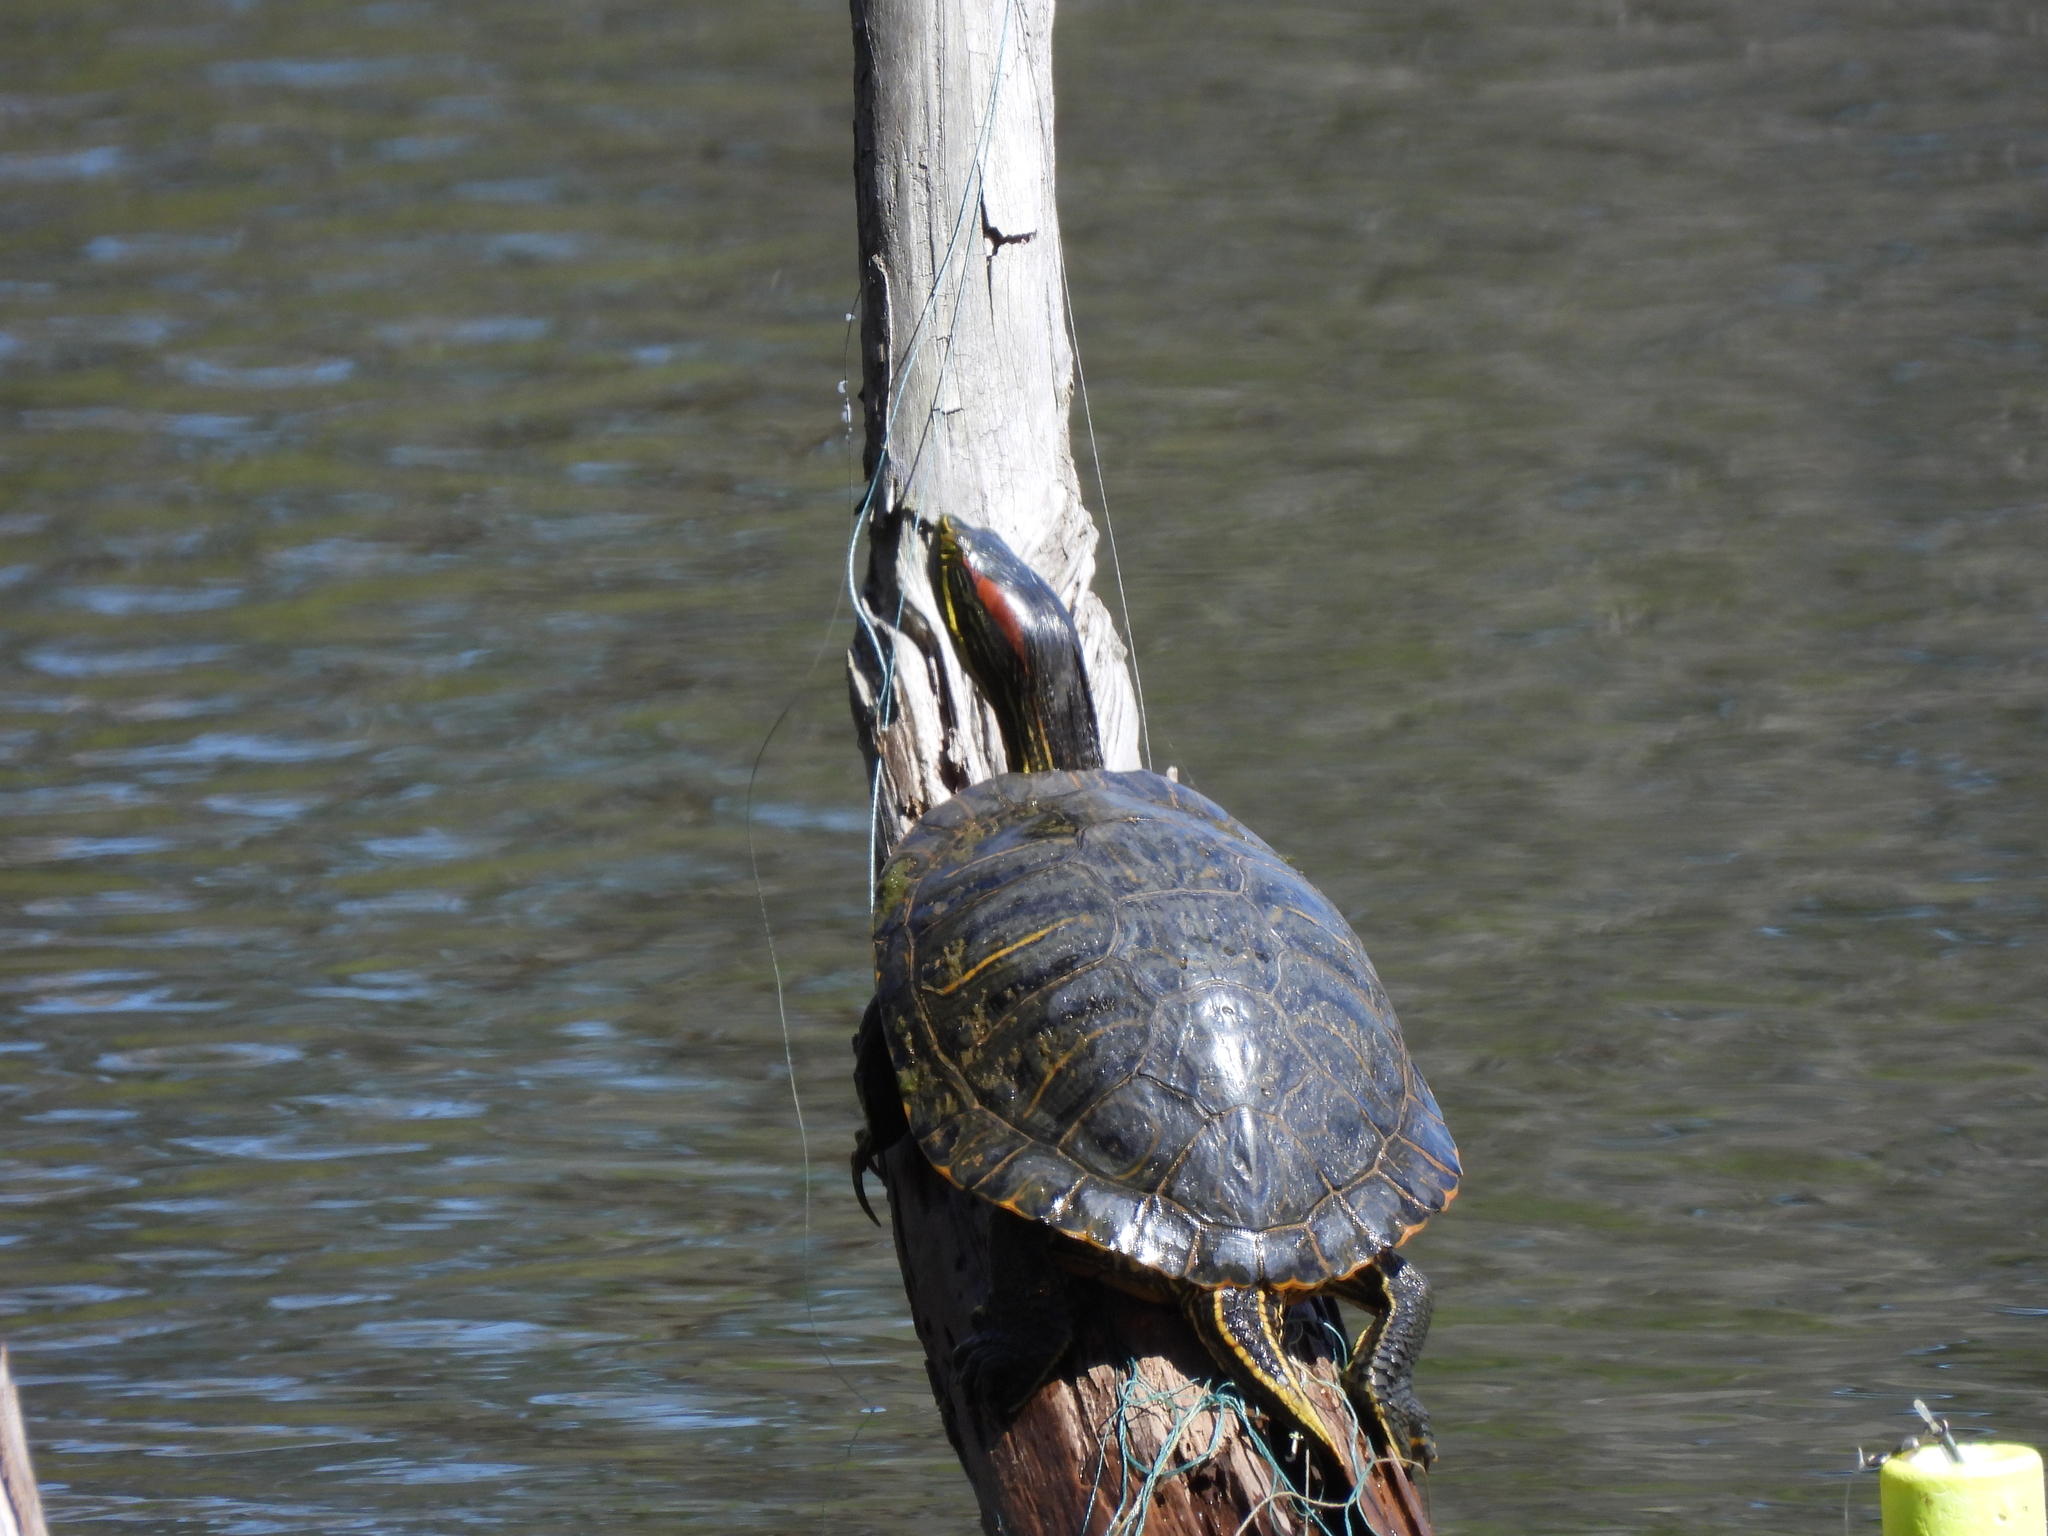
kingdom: Animalia
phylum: Chordata
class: Testudines
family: Emydidae
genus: Trachemys
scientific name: Trachemys scripta
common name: Slider
